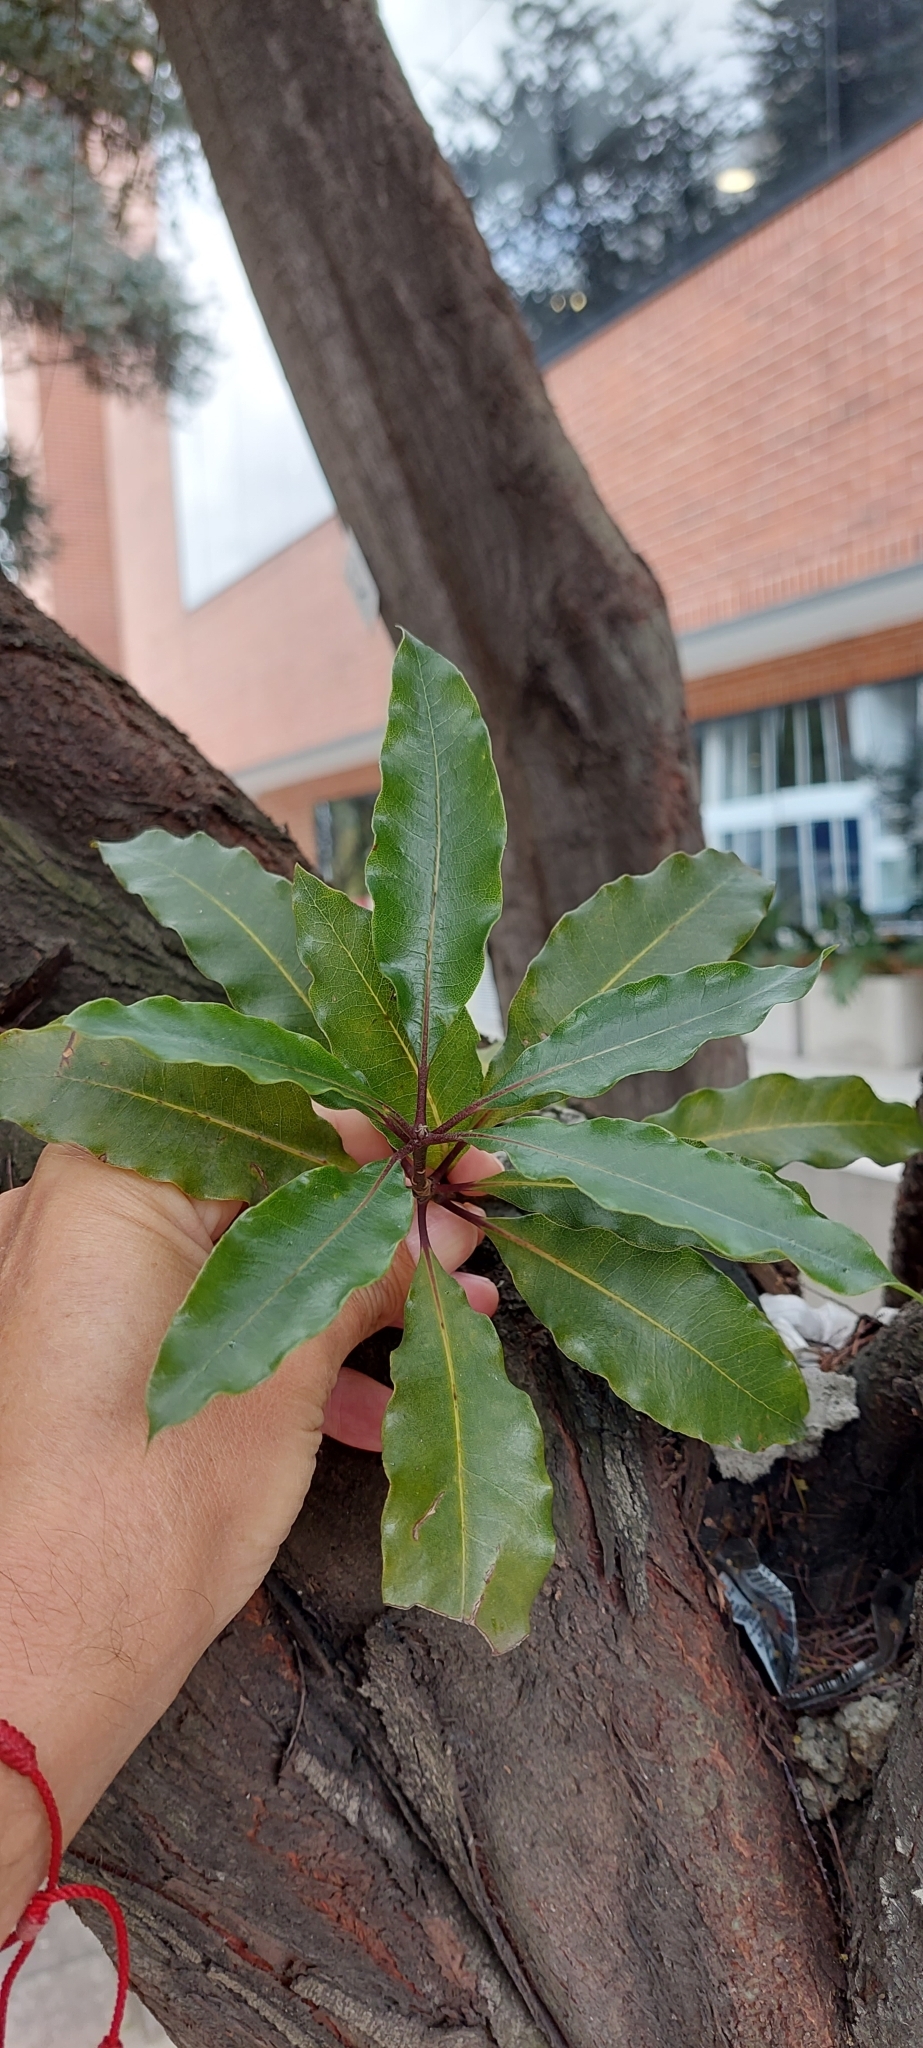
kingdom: Plantae
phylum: Tracheophyta
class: Magnoliopsida
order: Apiales
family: Pittosporaceae
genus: Pittosporum
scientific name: Pittosporum undulatum
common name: Australian cheesewood
